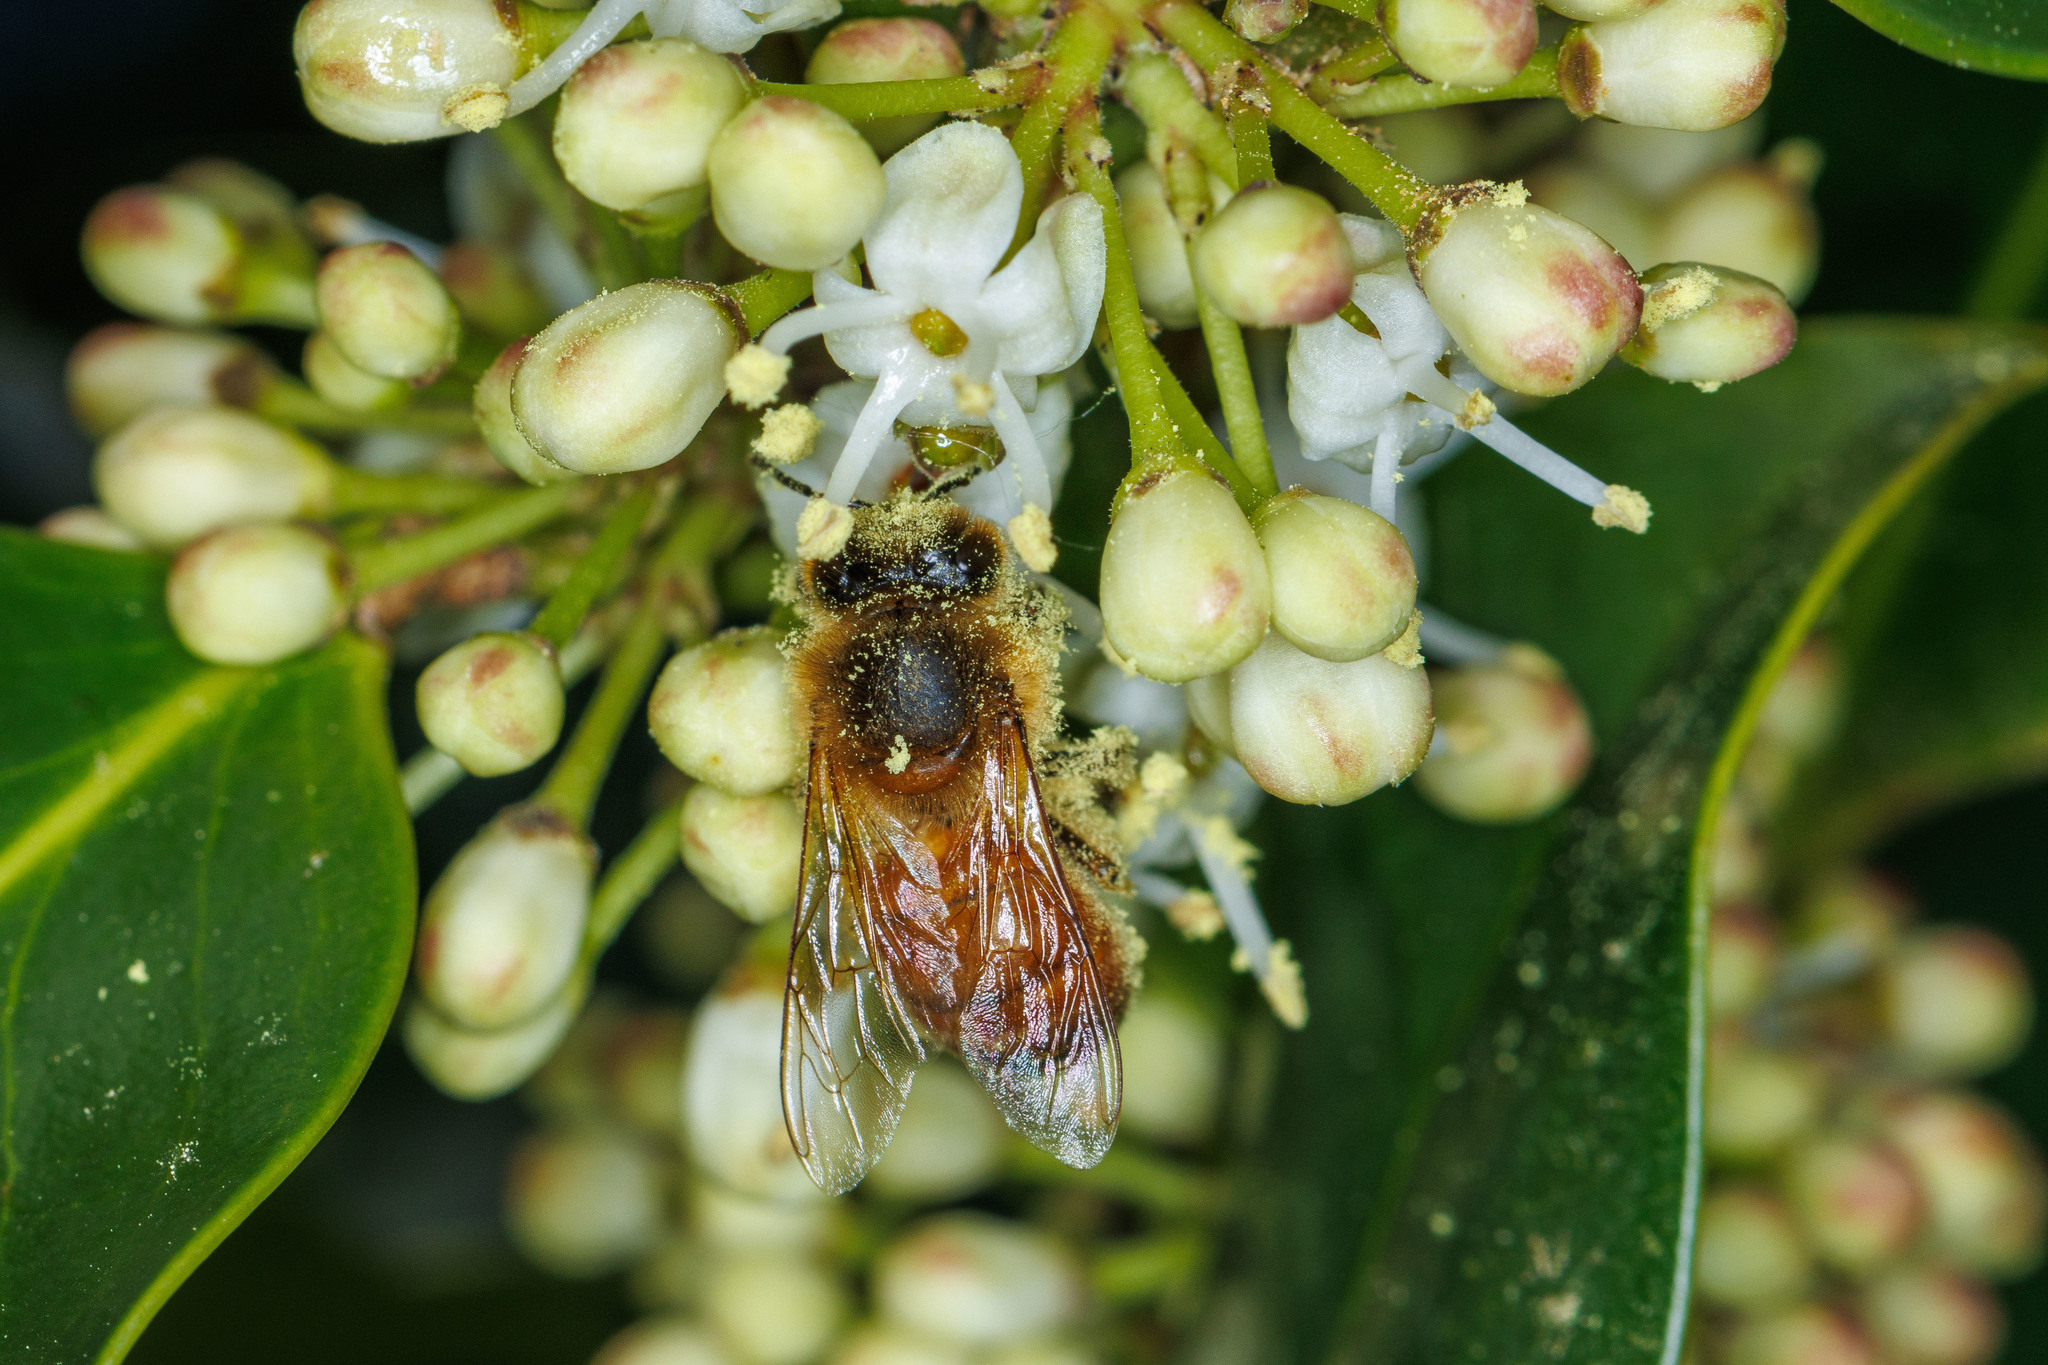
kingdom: Animalia
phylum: Arthropoda
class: Insecta
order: Hymenoptera
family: Apidae
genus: Apis
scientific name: Apis mellifera
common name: Honey bee
